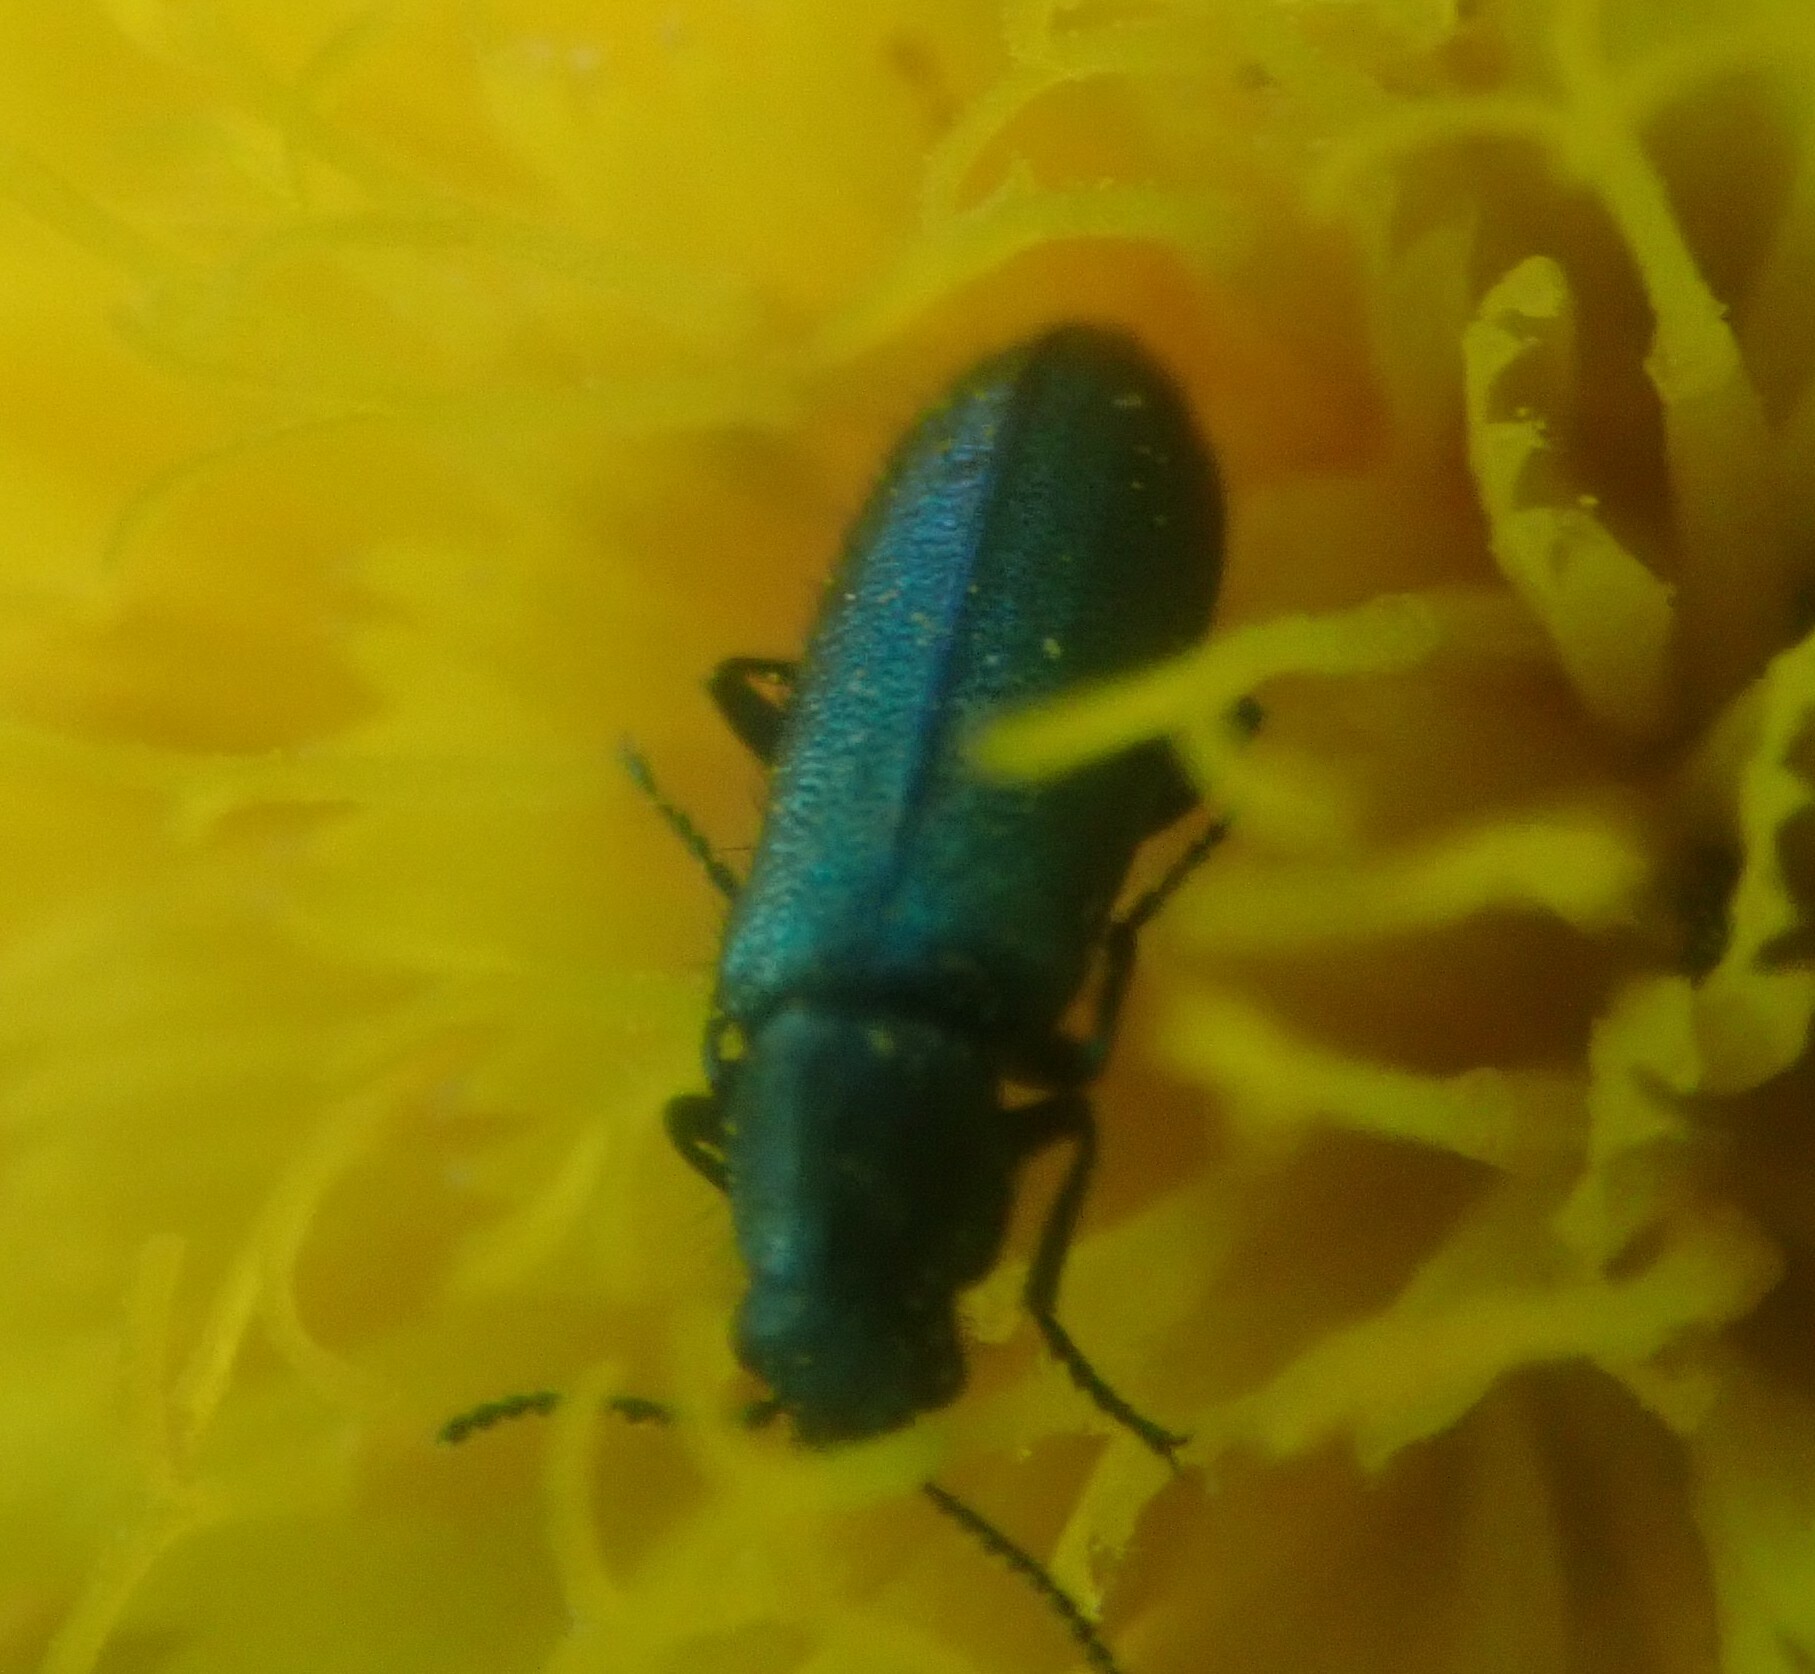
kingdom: Animalia
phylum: Arthropoda
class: Insecta
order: Coleoptera
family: Dasytidae
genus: Psilothrix
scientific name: Psilothrix illustris
